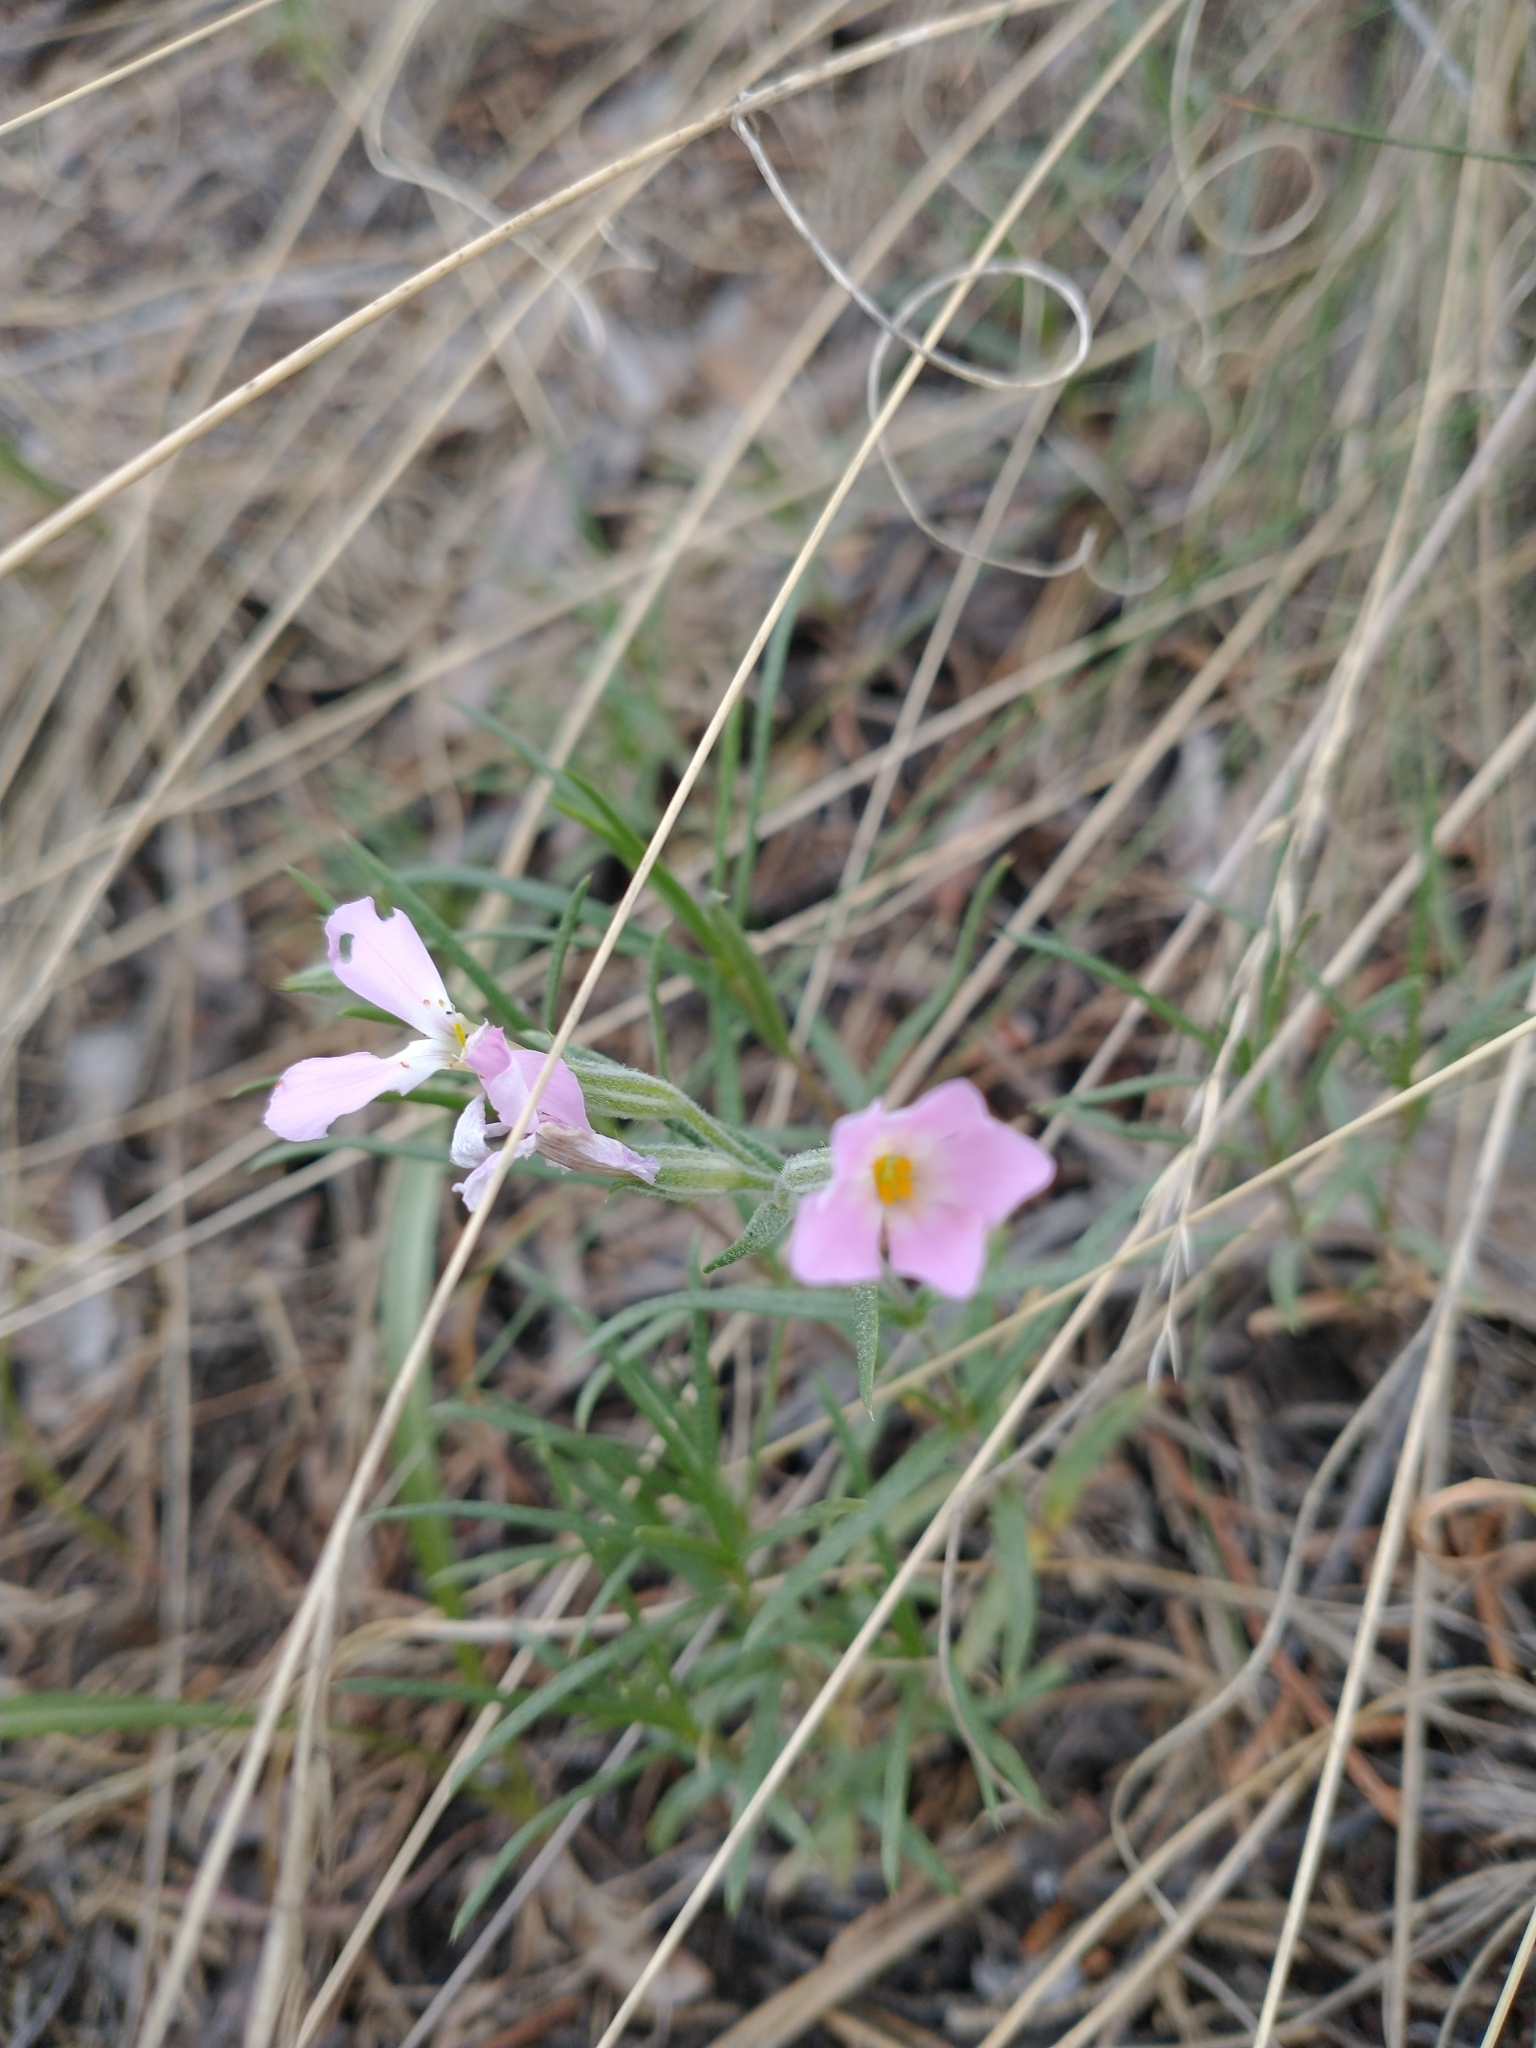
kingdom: Plantae
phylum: Tracheophyta
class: Magnoliopsida
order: Ericales
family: Polemoniaceae
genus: Phlox
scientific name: Phlox longifolia
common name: Longleaf phlox
